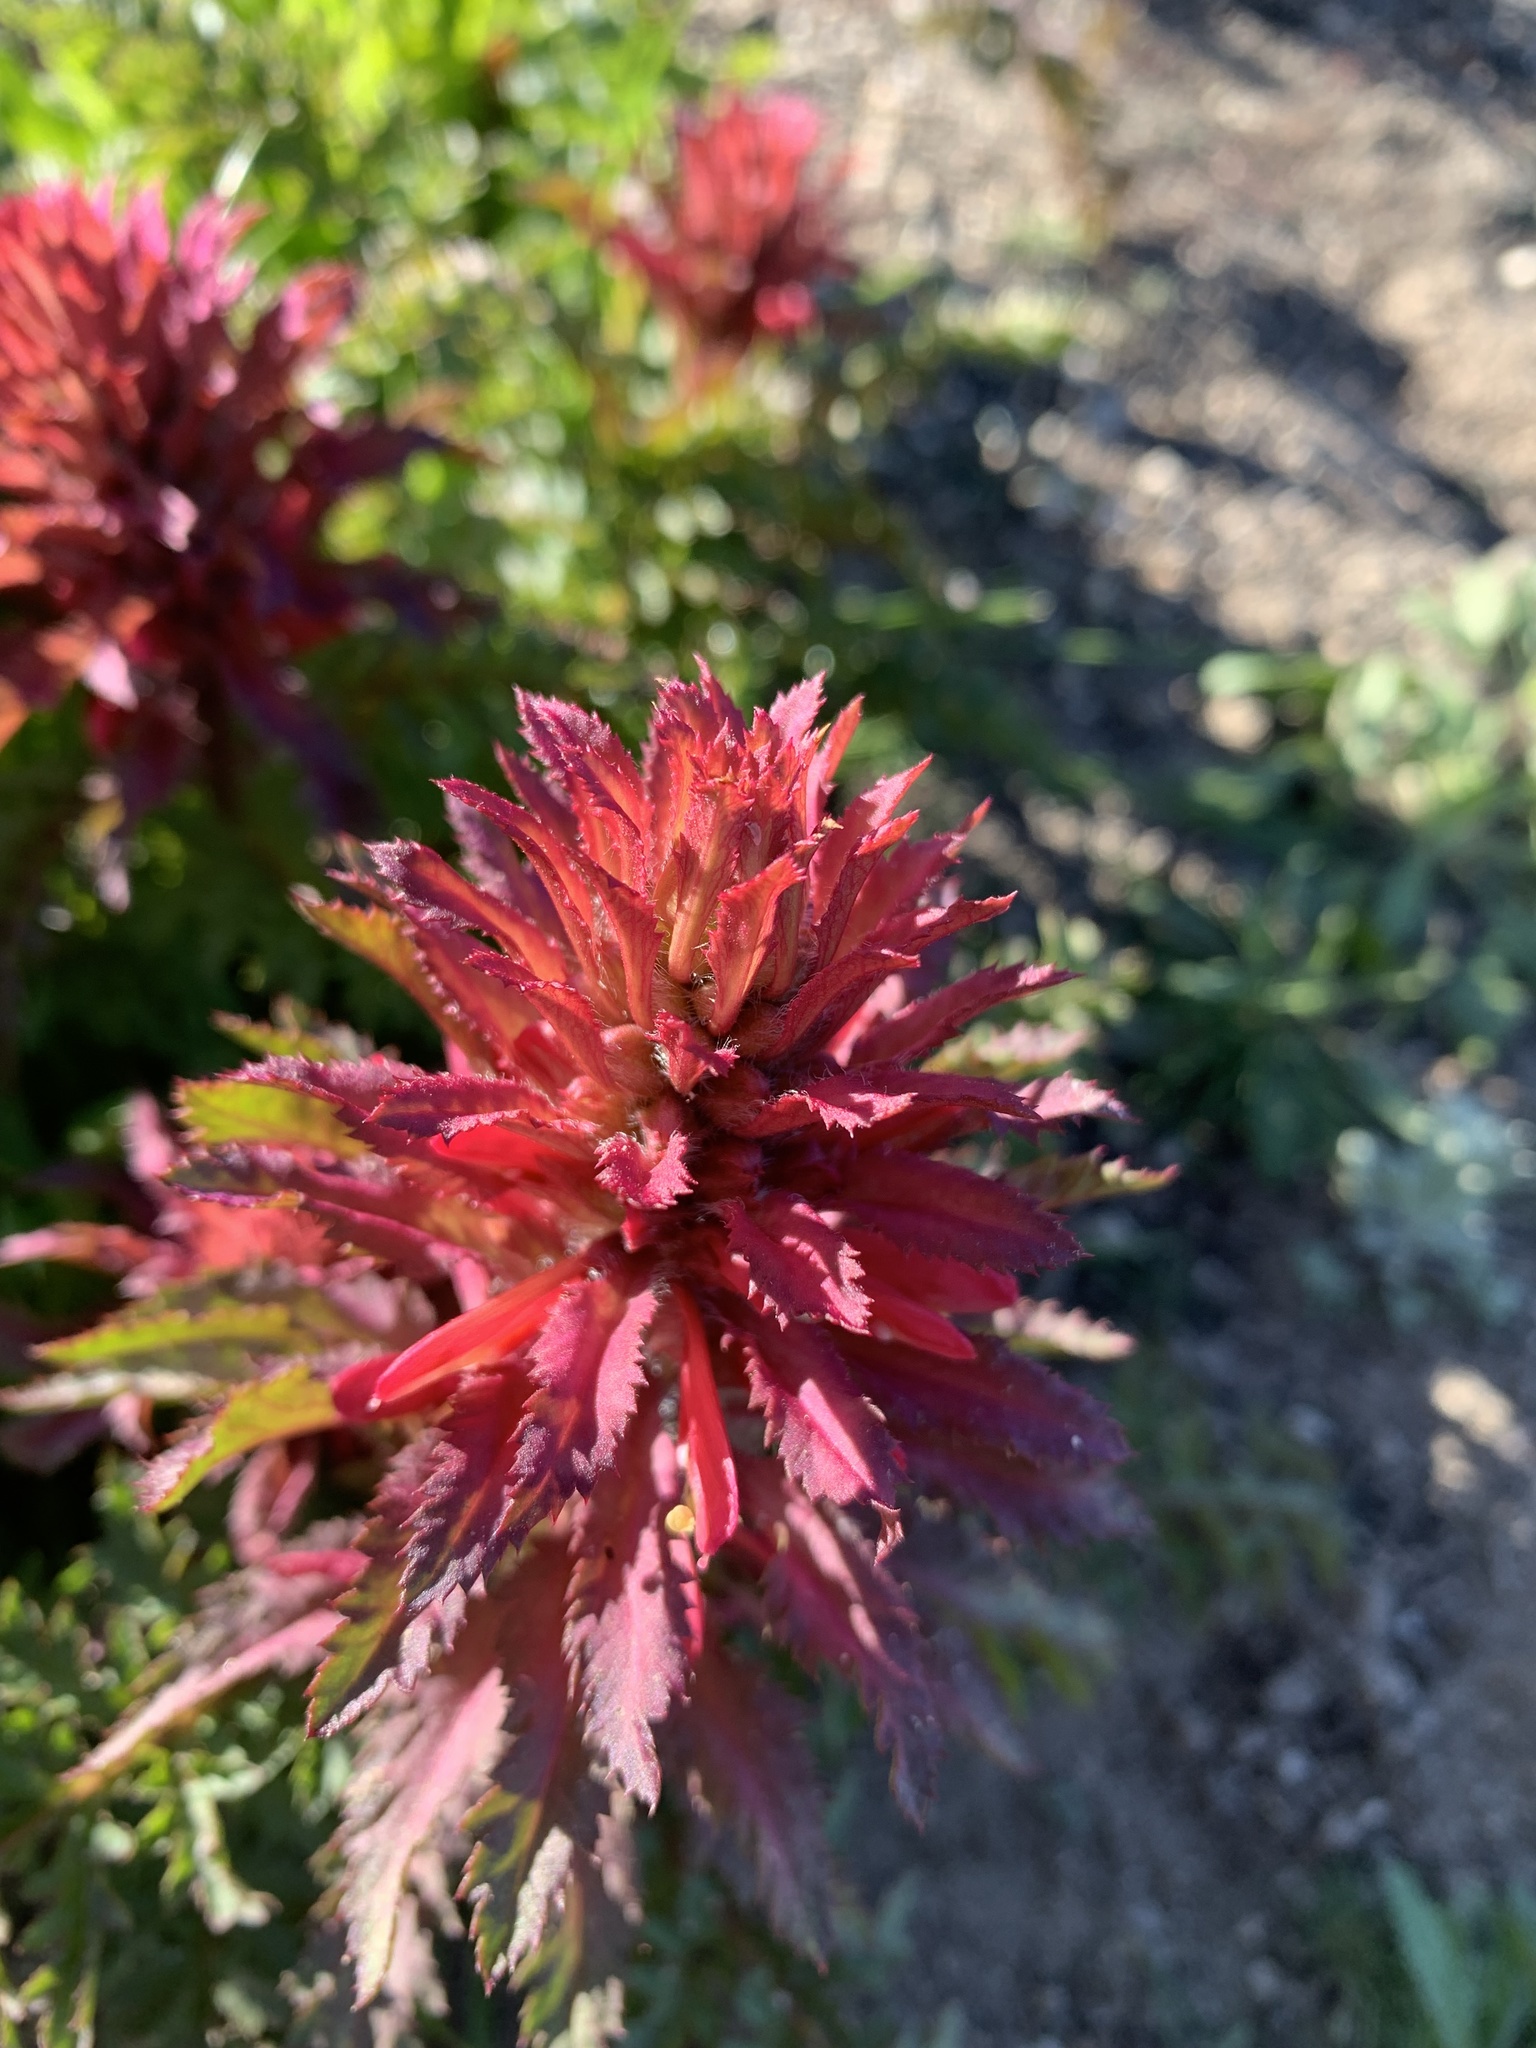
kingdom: Plantae
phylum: Tracheophyta
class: Magnoliopsida
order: Lamiales
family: Orobanchaceae
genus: Pedicularis
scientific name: Pedicularis densiflora
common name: Indian warrior
